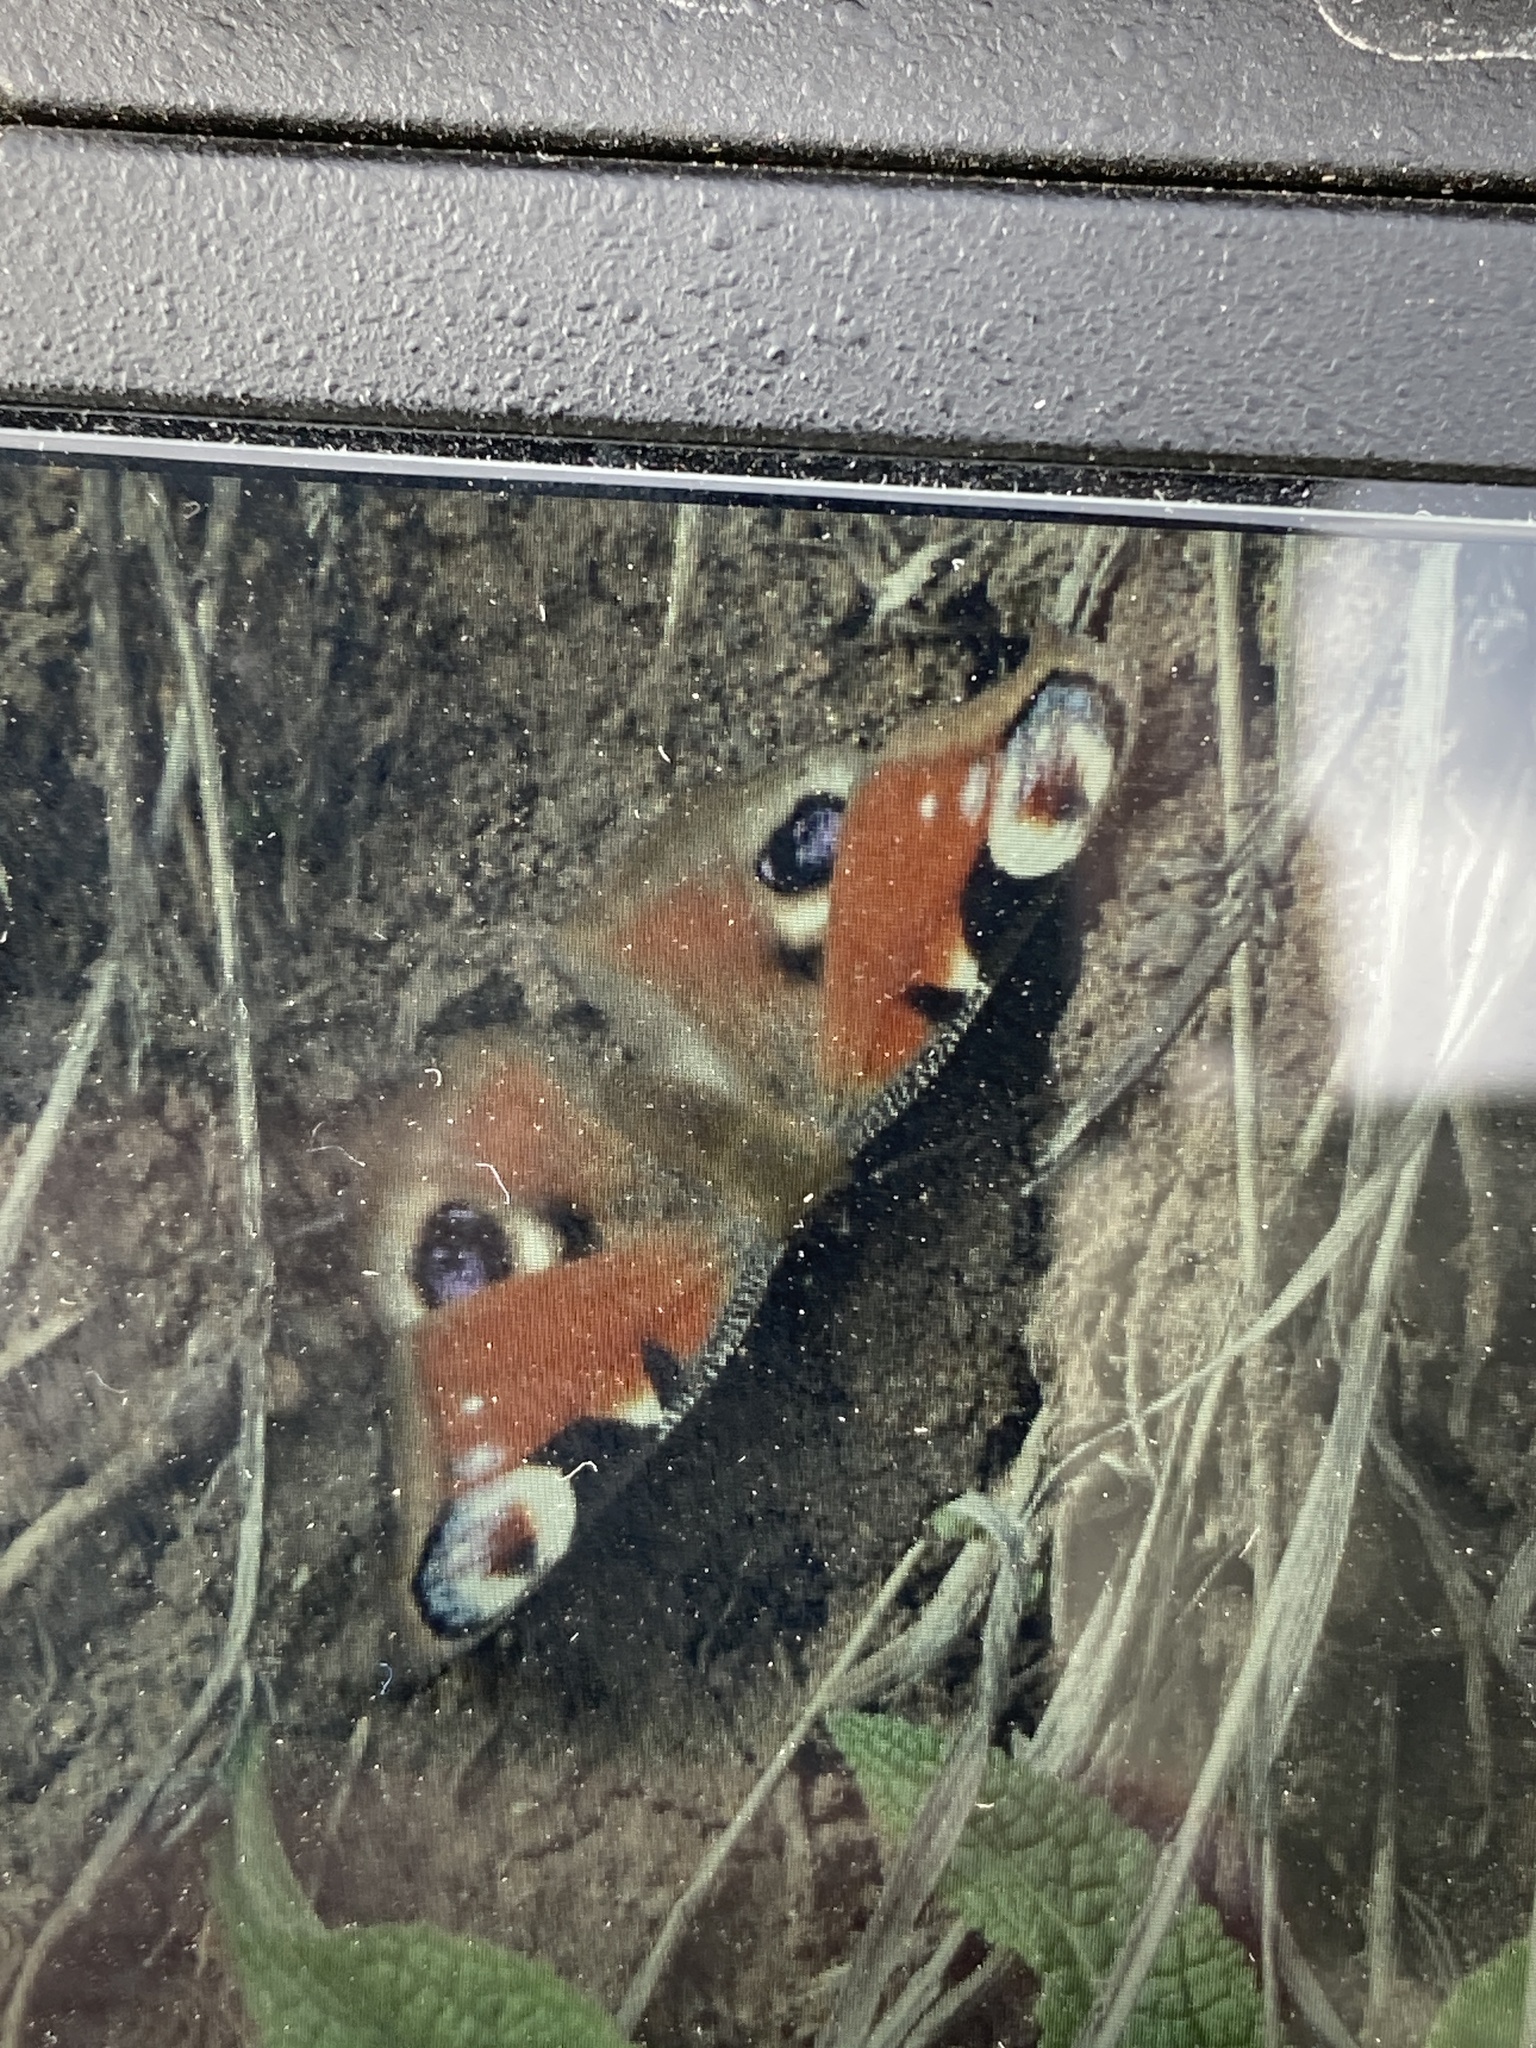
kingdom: Animalia
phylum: Arthropoda
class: Insecta
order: Lepidoptera
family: Nymphalidae
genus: Aglais
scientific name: Aglais io
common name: Peacock
